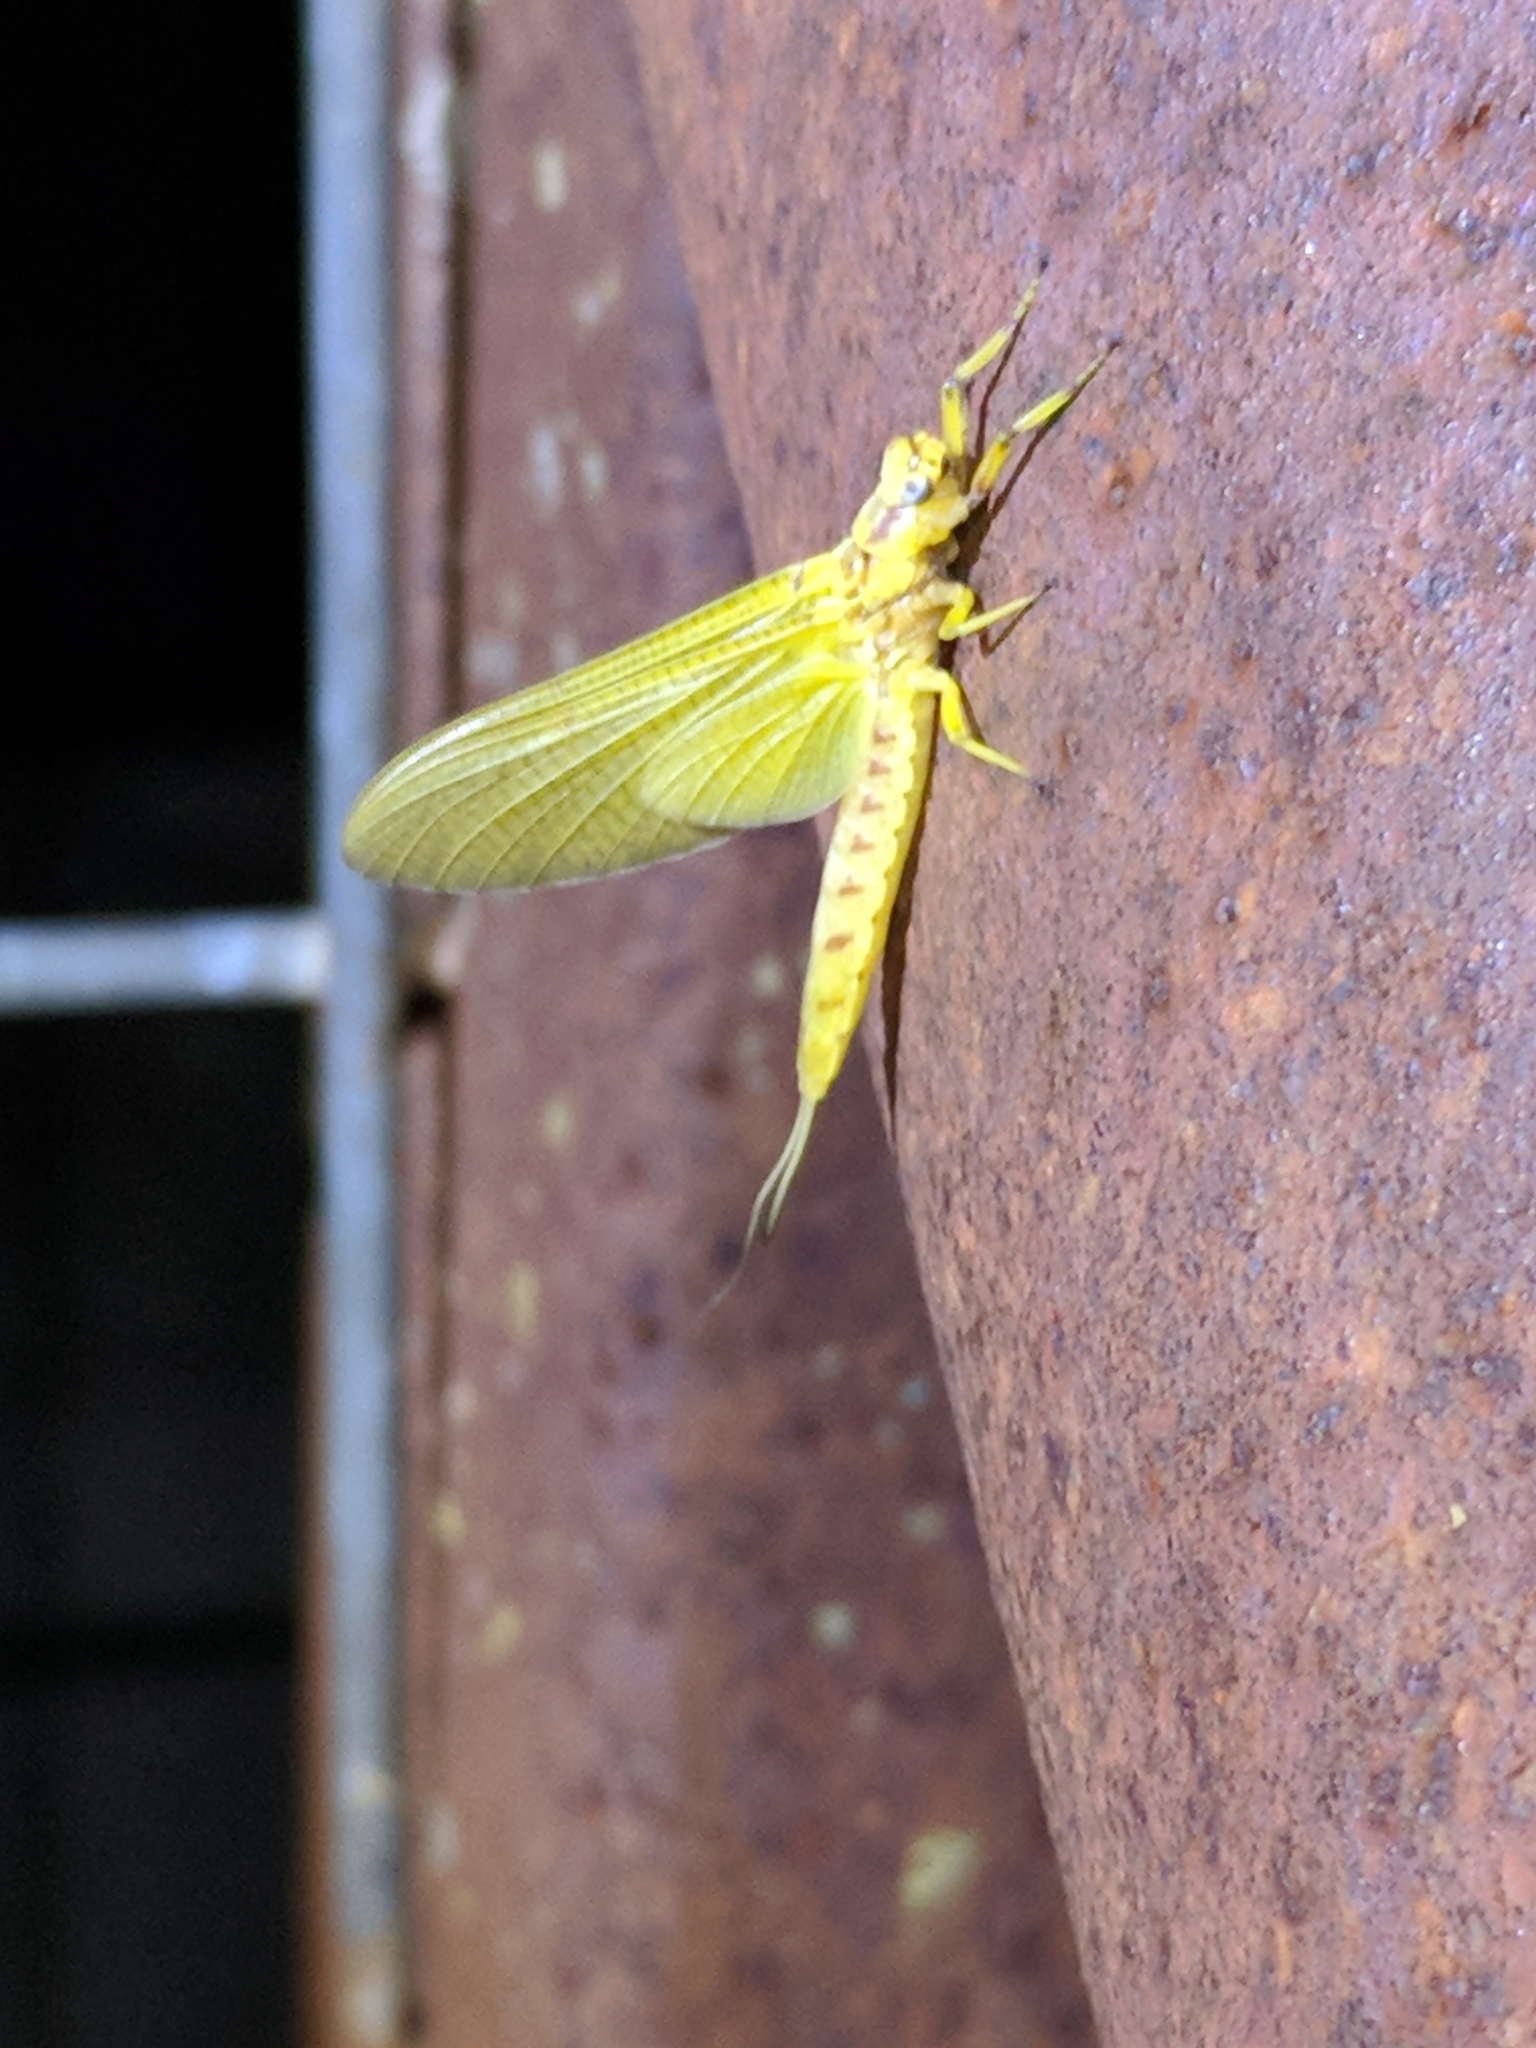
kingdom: Animalia
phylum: Arthropoda
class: Insecta
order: Ephemeroptera
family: Ephemeridae
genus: Hexagenia
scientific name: Hexagenia limbata
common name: Giant mayfly
